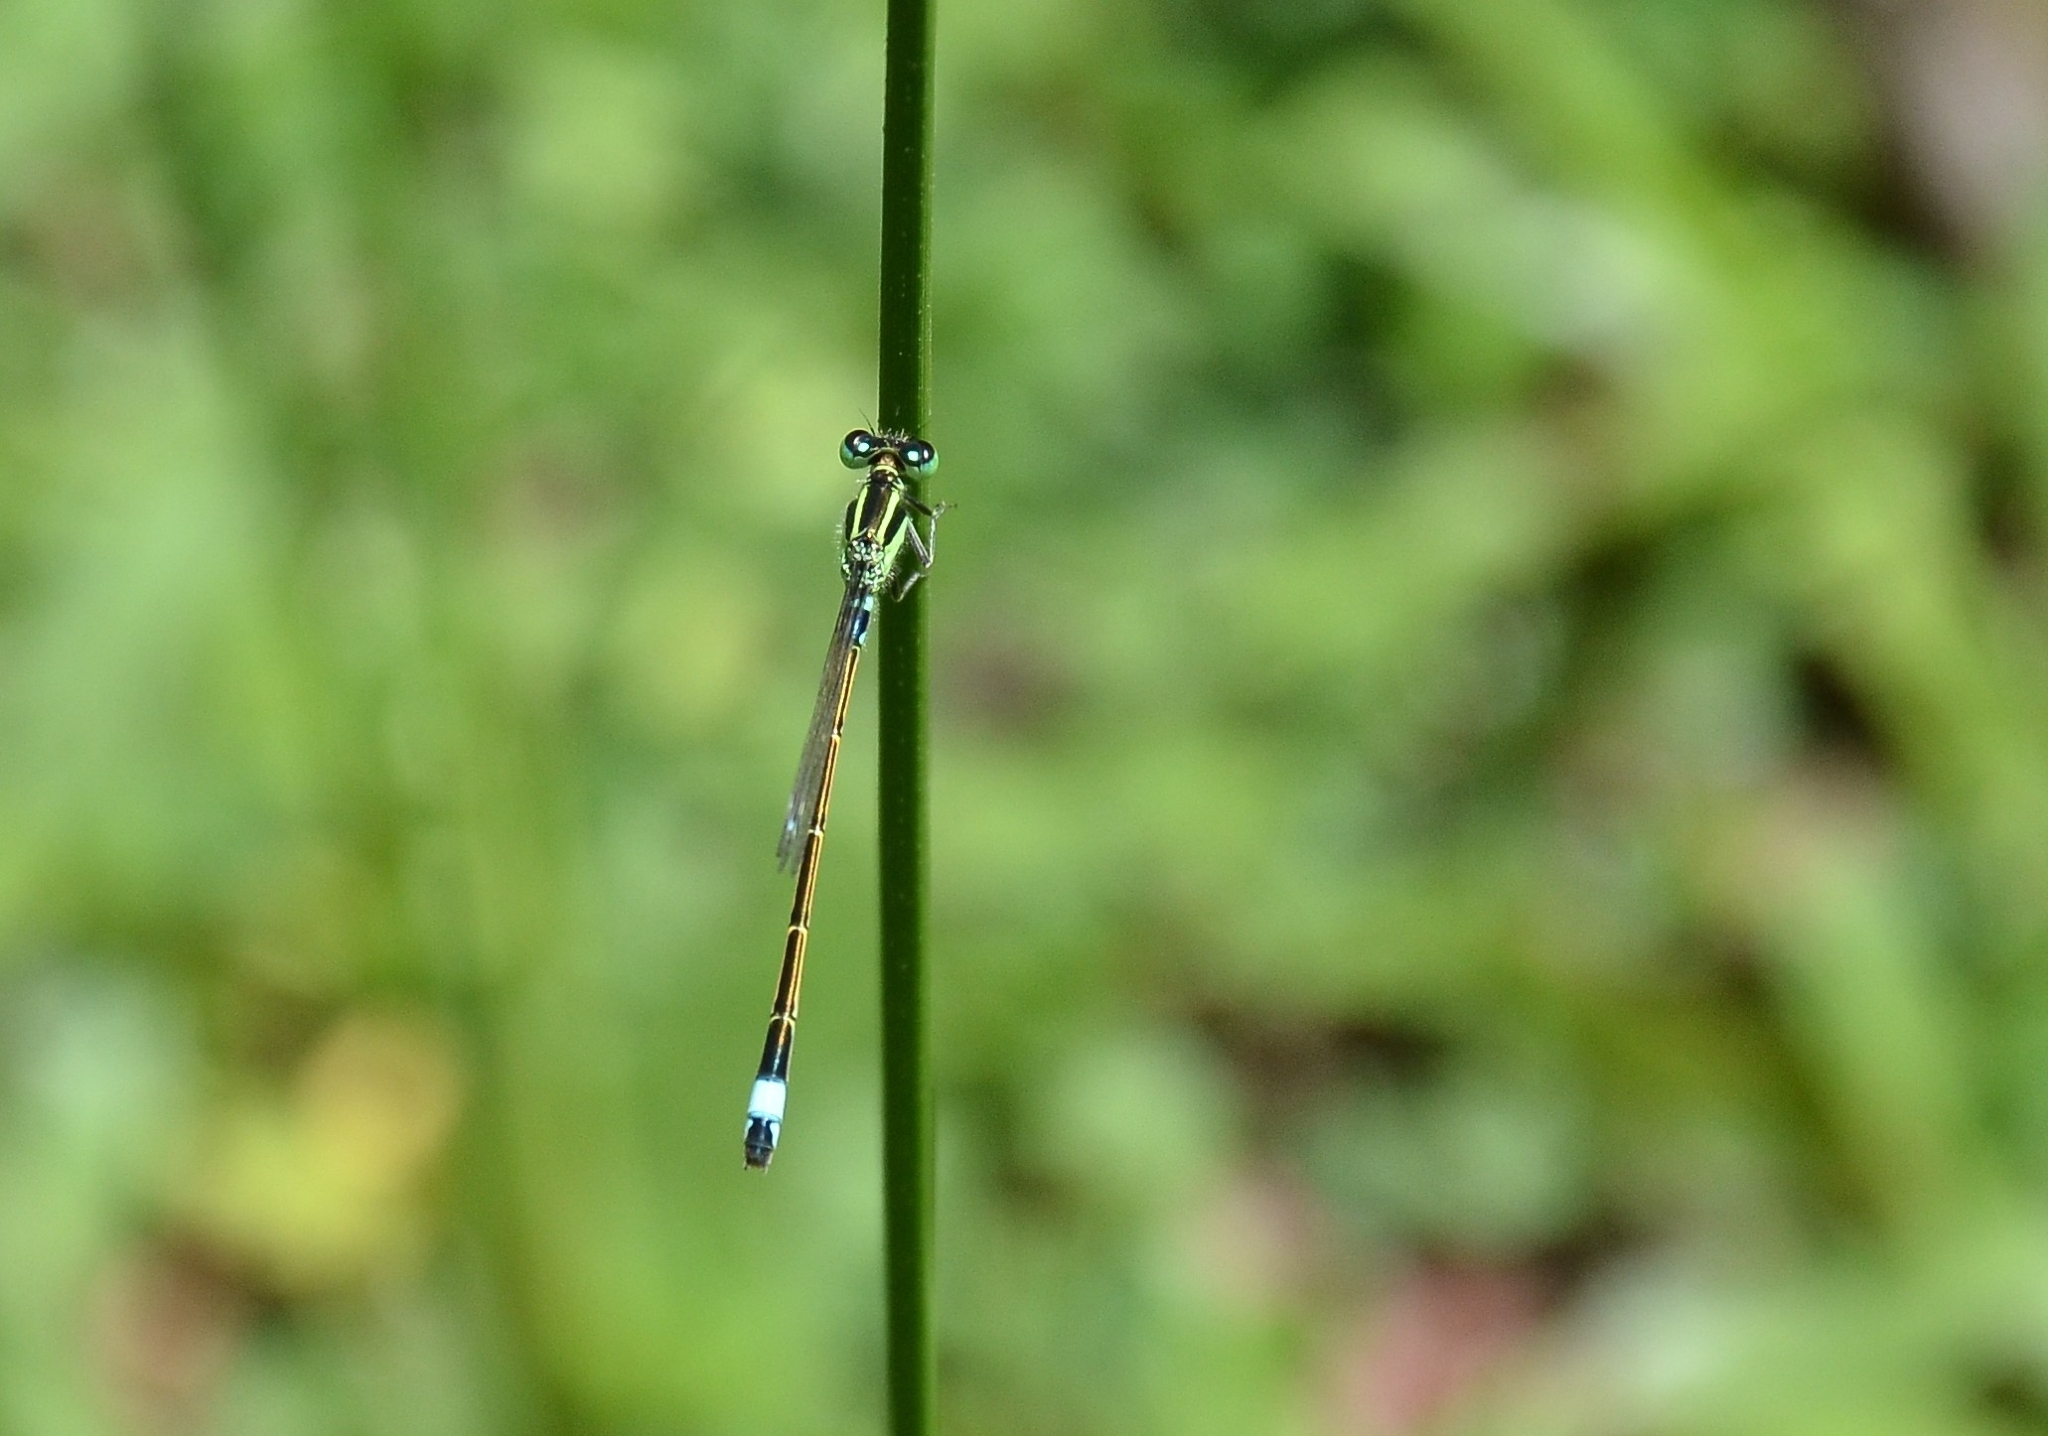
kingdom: Animalia
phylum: Arthropoda
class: Insecta
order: Odonata
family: Coenagrionidae
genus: Ischnura
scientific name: Ischnura senegalensis
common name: Tropical bluetail
